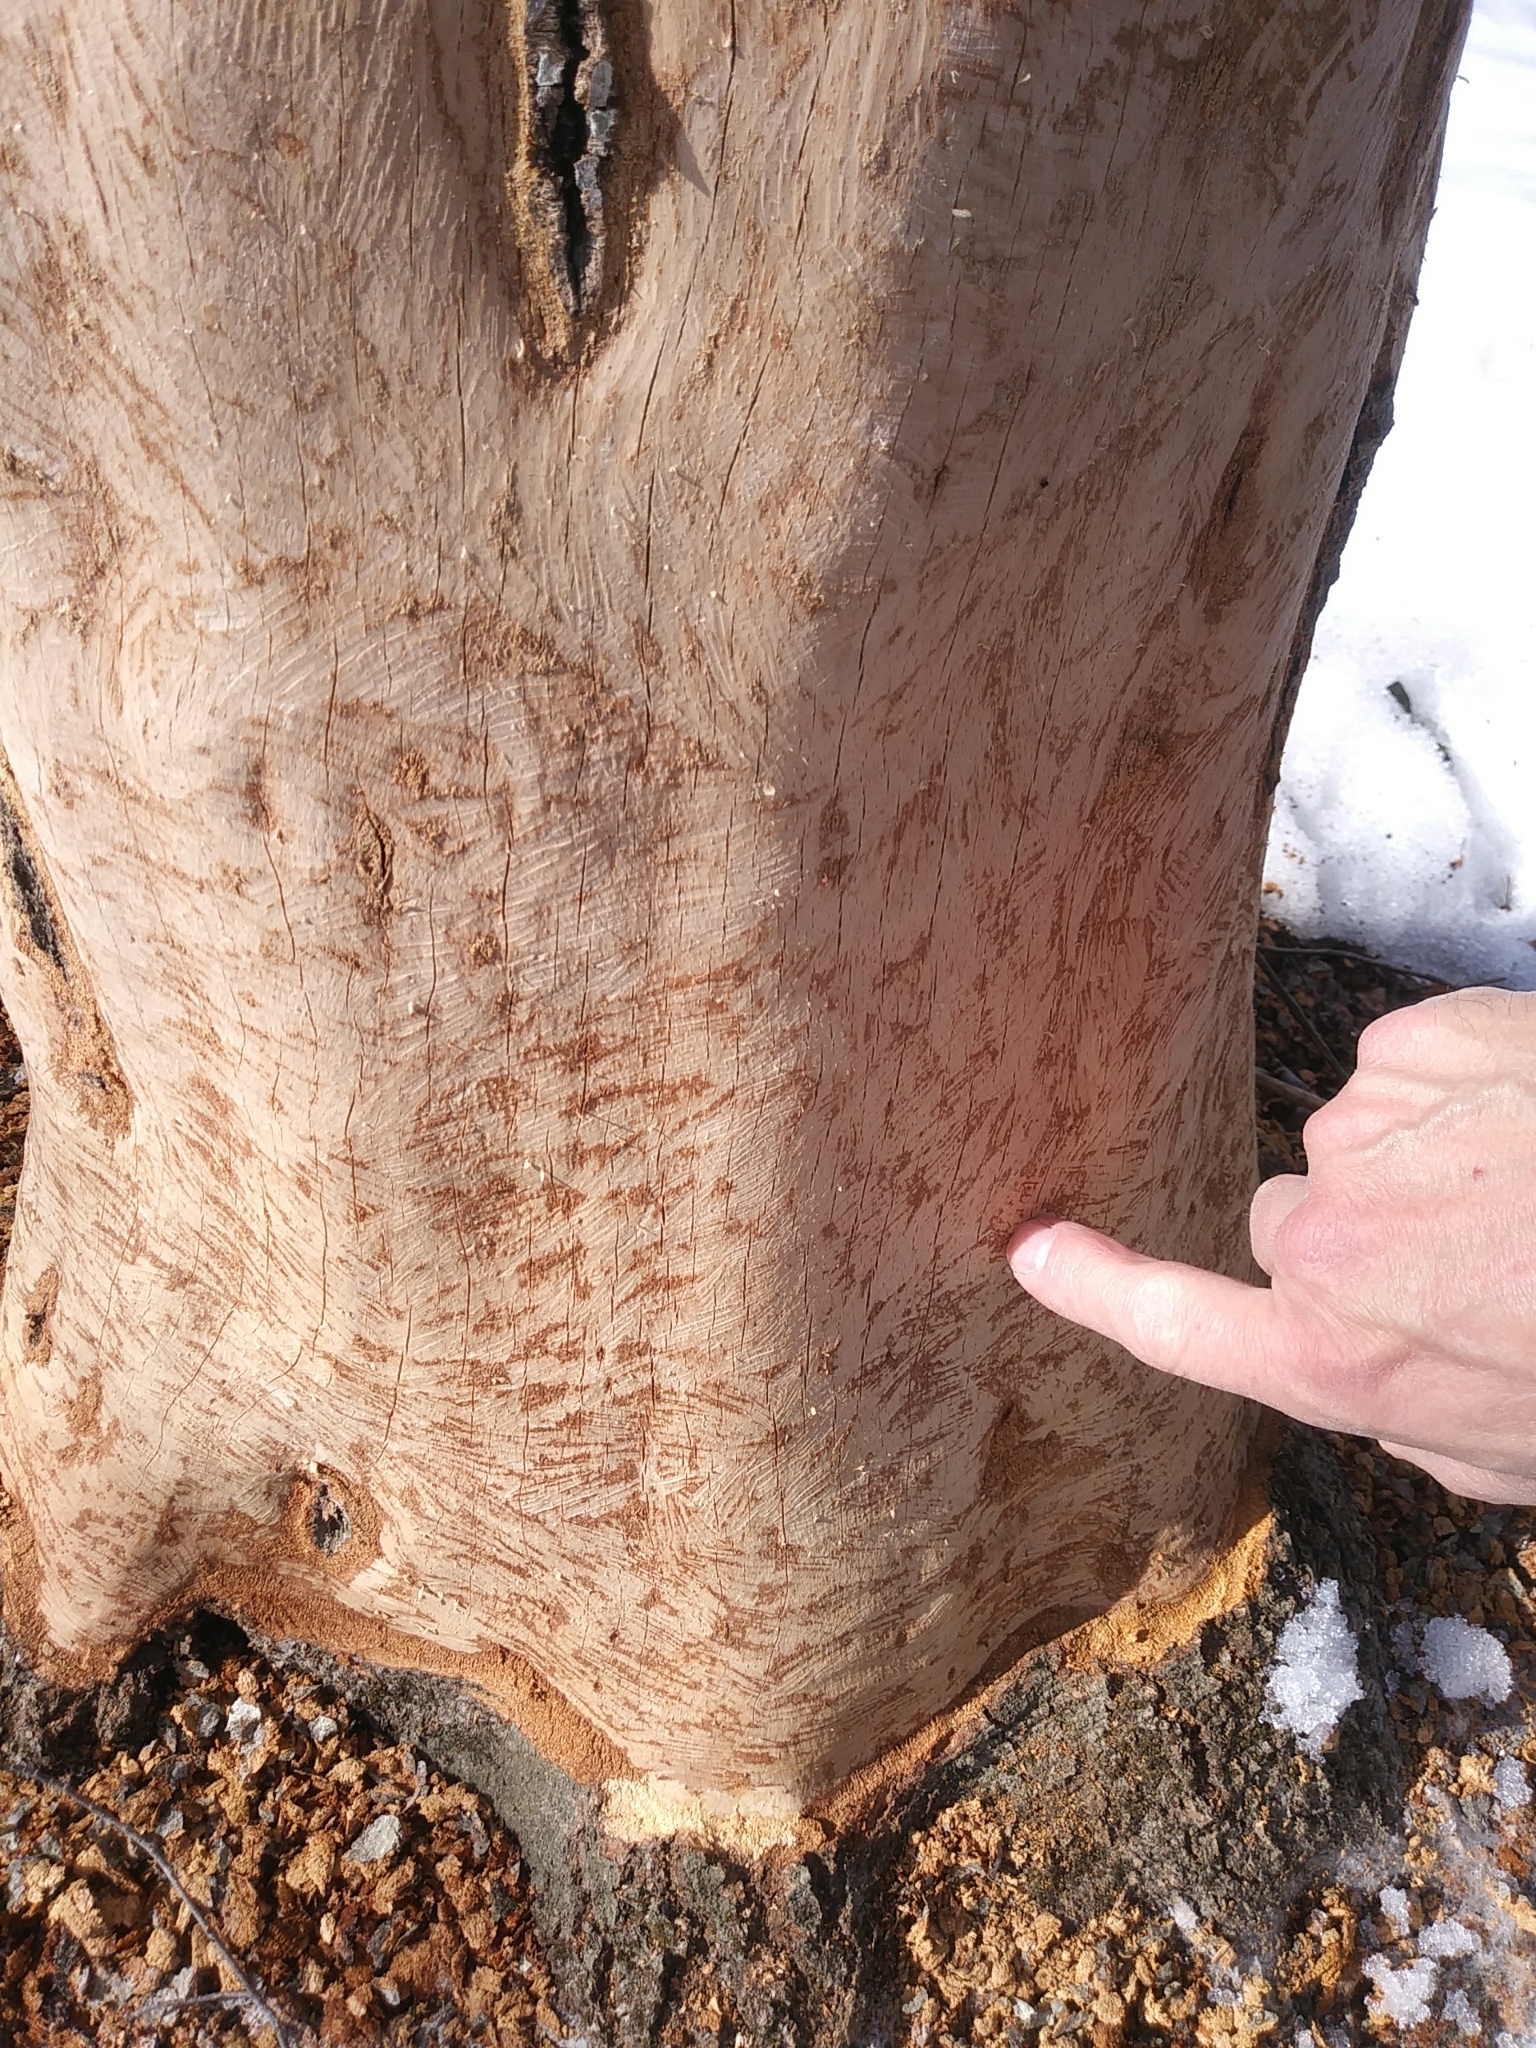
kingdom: Animalia
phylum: Chordata
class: Mammalia
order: Rodentia
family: Erethizontidae
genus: Erethizon
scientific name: Erethizon dorsatus
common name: North american porcupine
